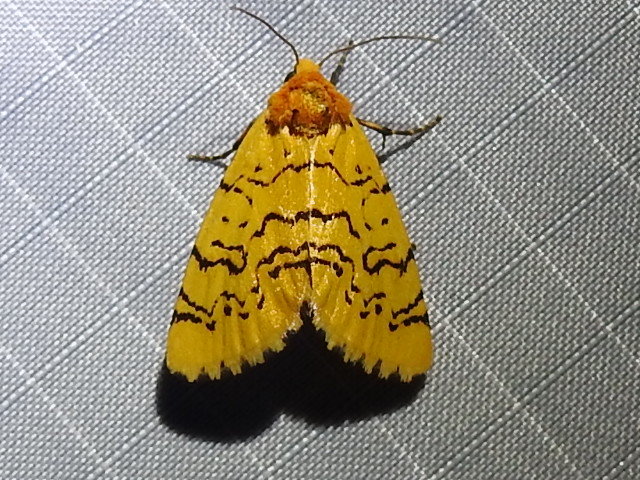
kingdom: Animalia
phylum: Arthropoda
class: Insecta
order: Lepidoptera
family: Noctuidae
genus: Chrysoecia
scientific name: Chrysoecia atrolinea
